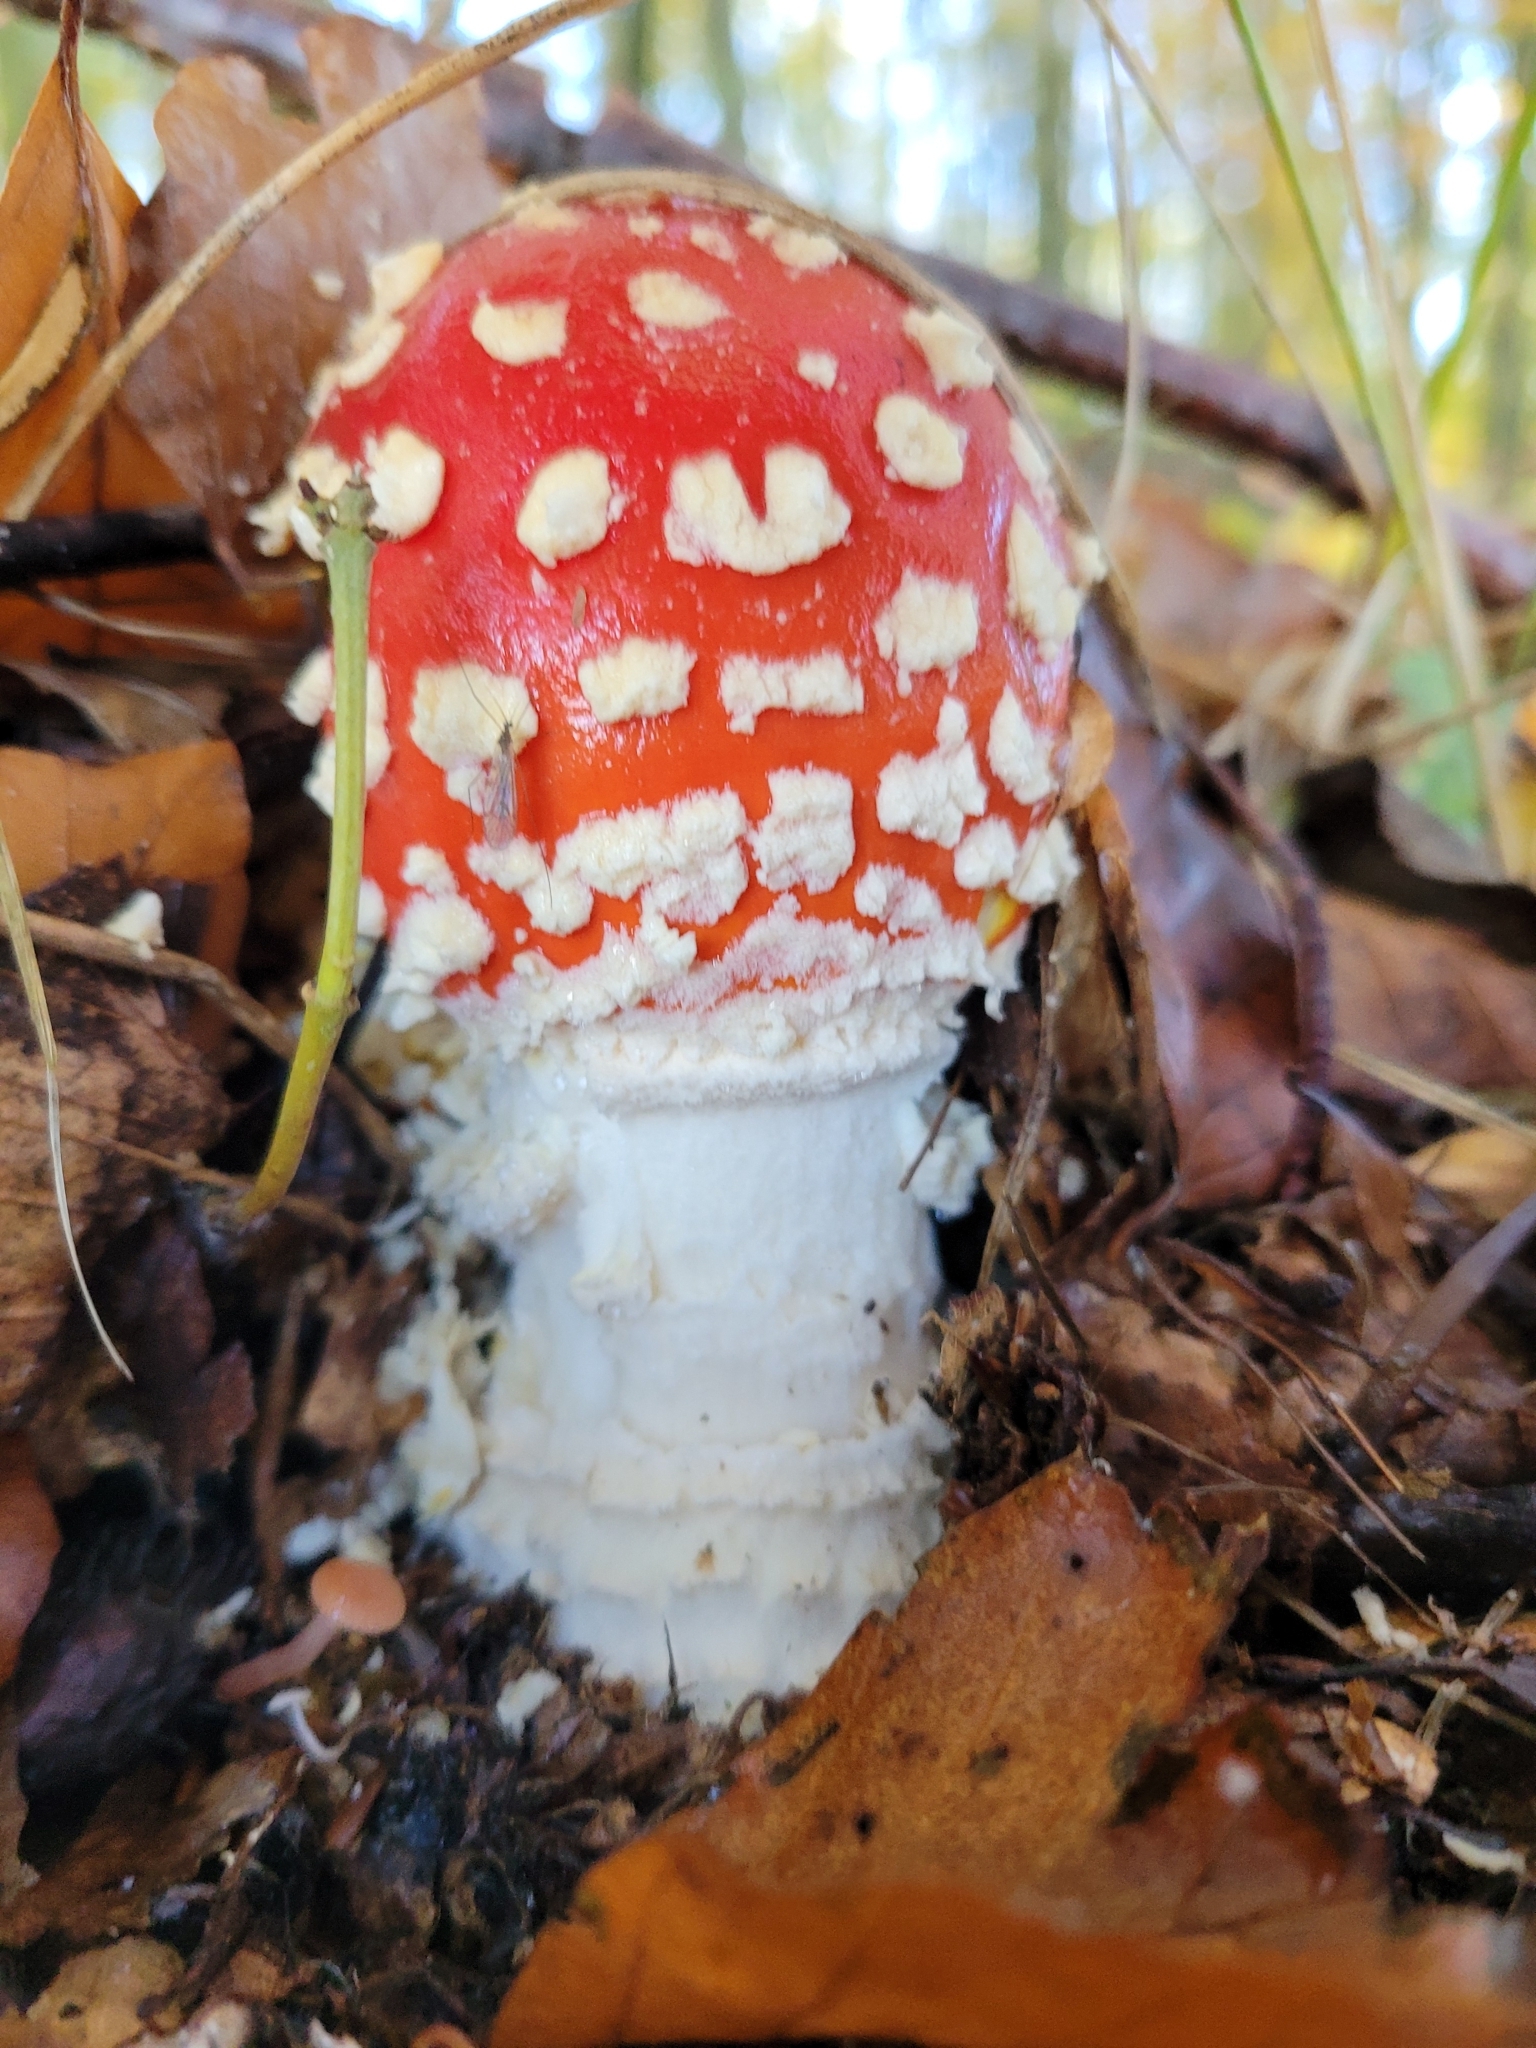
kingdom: Fungi
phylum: Basidiomycota
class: Agaricomycetes
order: Agaricales
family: Amanitaceae
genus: Amanita
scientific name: Amanita muscaria
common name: Fly agaric
